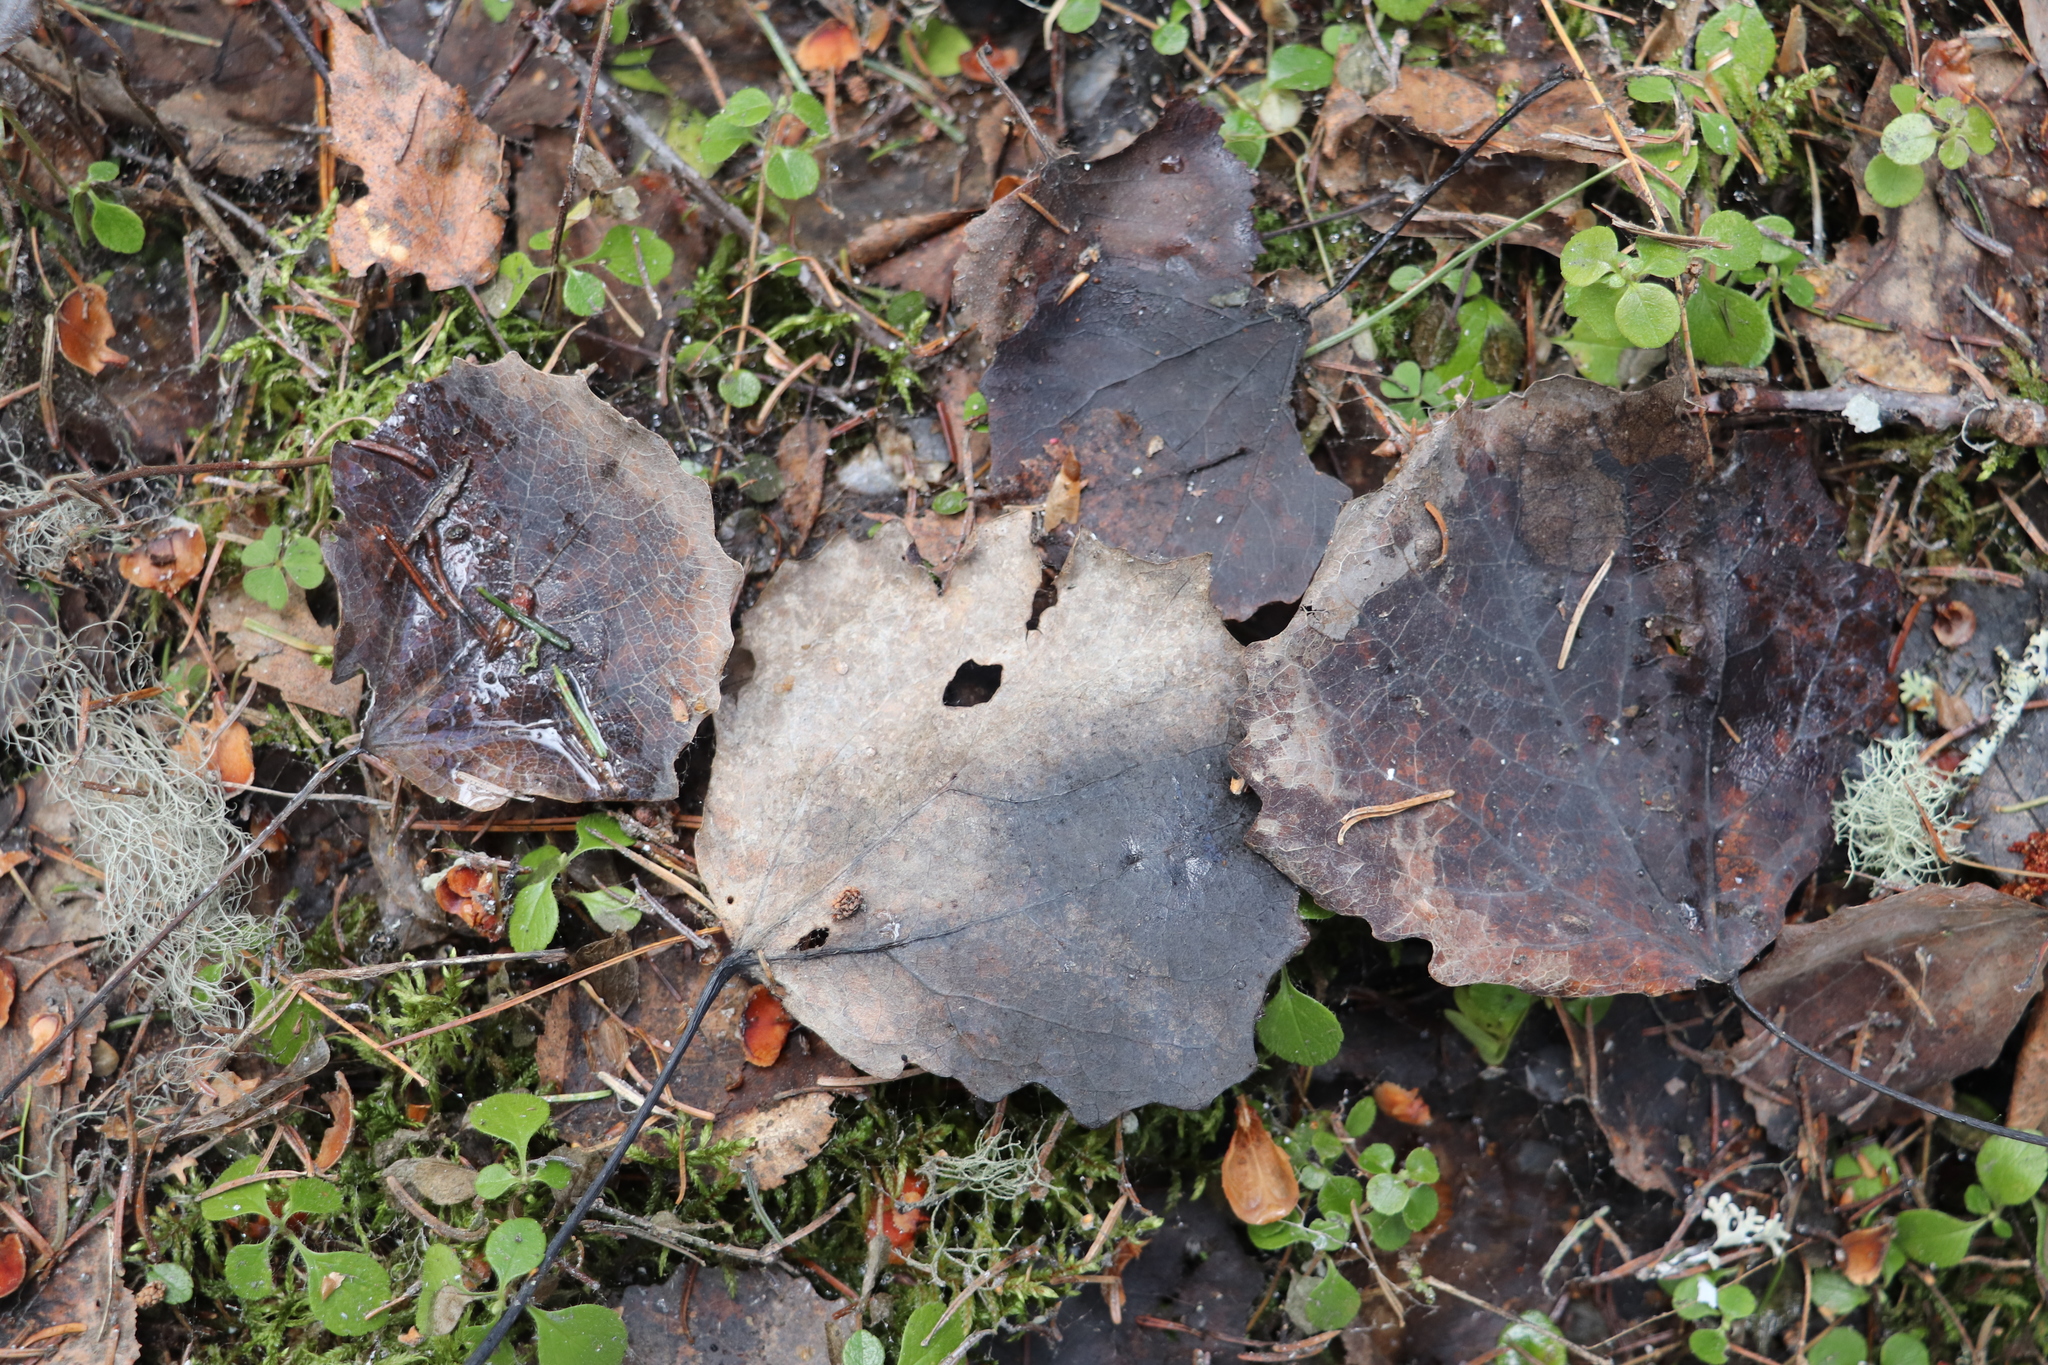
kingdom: Plantae
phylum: Tracheophyta
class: Magnoliopsida
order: Malpighiales
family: Salicaceae
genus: Populus
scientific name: Populus tremula
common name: European aspen
